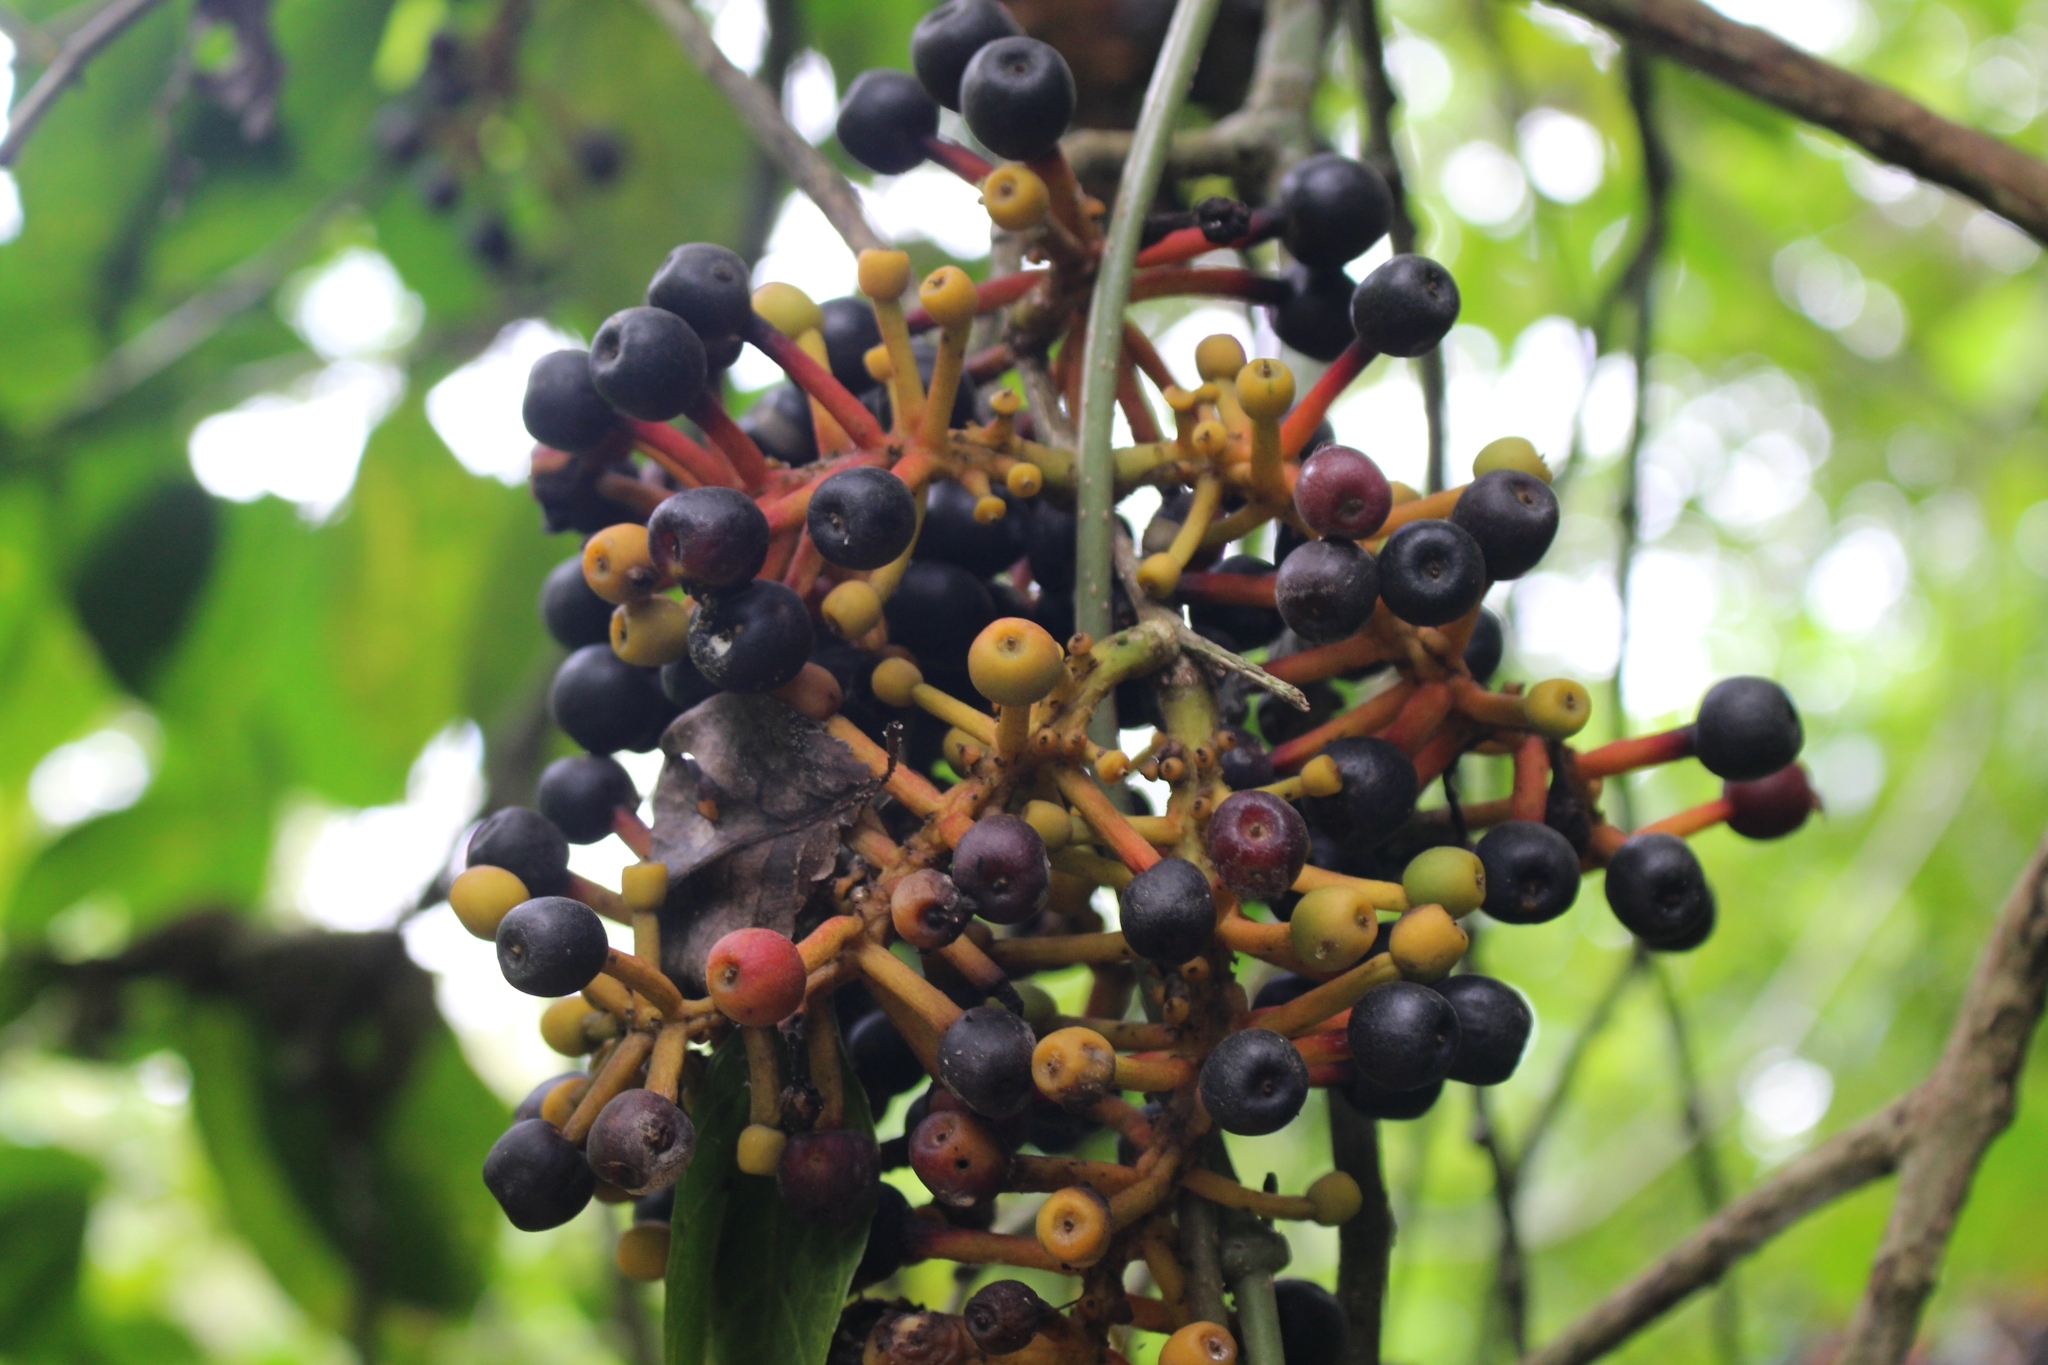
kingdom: Plantae
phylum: Tracheophyta
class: Magnoliopsida
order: Rosales
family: Moraceae
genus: Sorocea
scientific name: Sorocea trophoides
